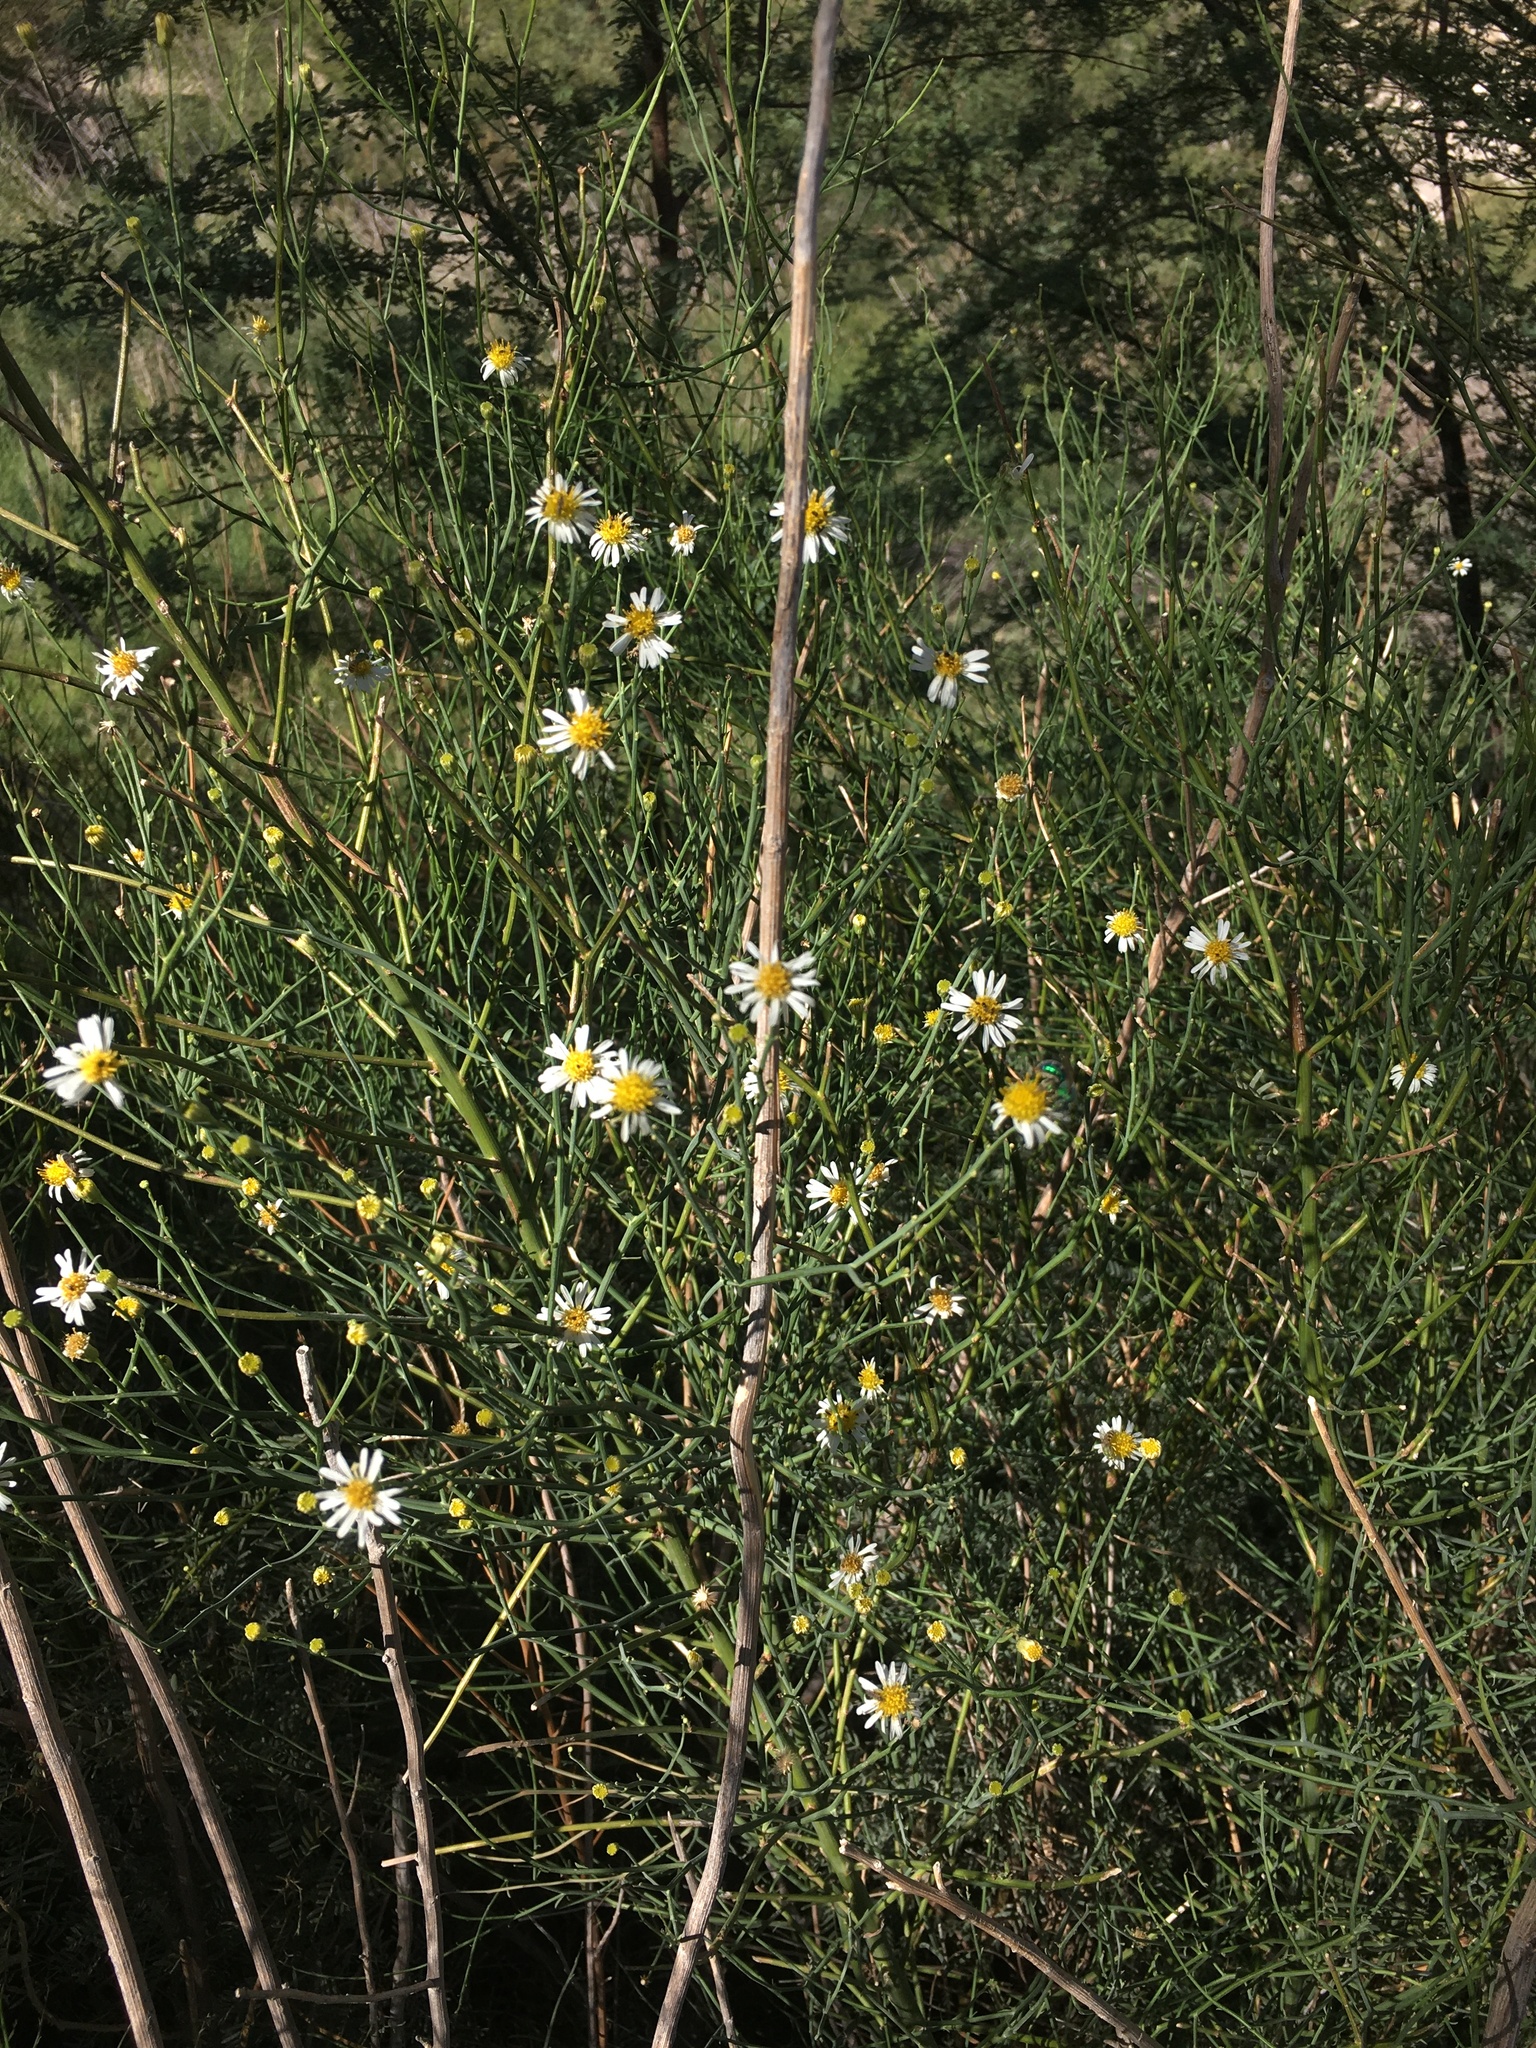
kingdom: Plantae
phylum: Tracheophyta
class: Magnoliopsida
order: Asterales
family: Asteraceae
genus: Chloracantha
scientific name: Chloracantha spinosa
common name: Mexican devilweed
